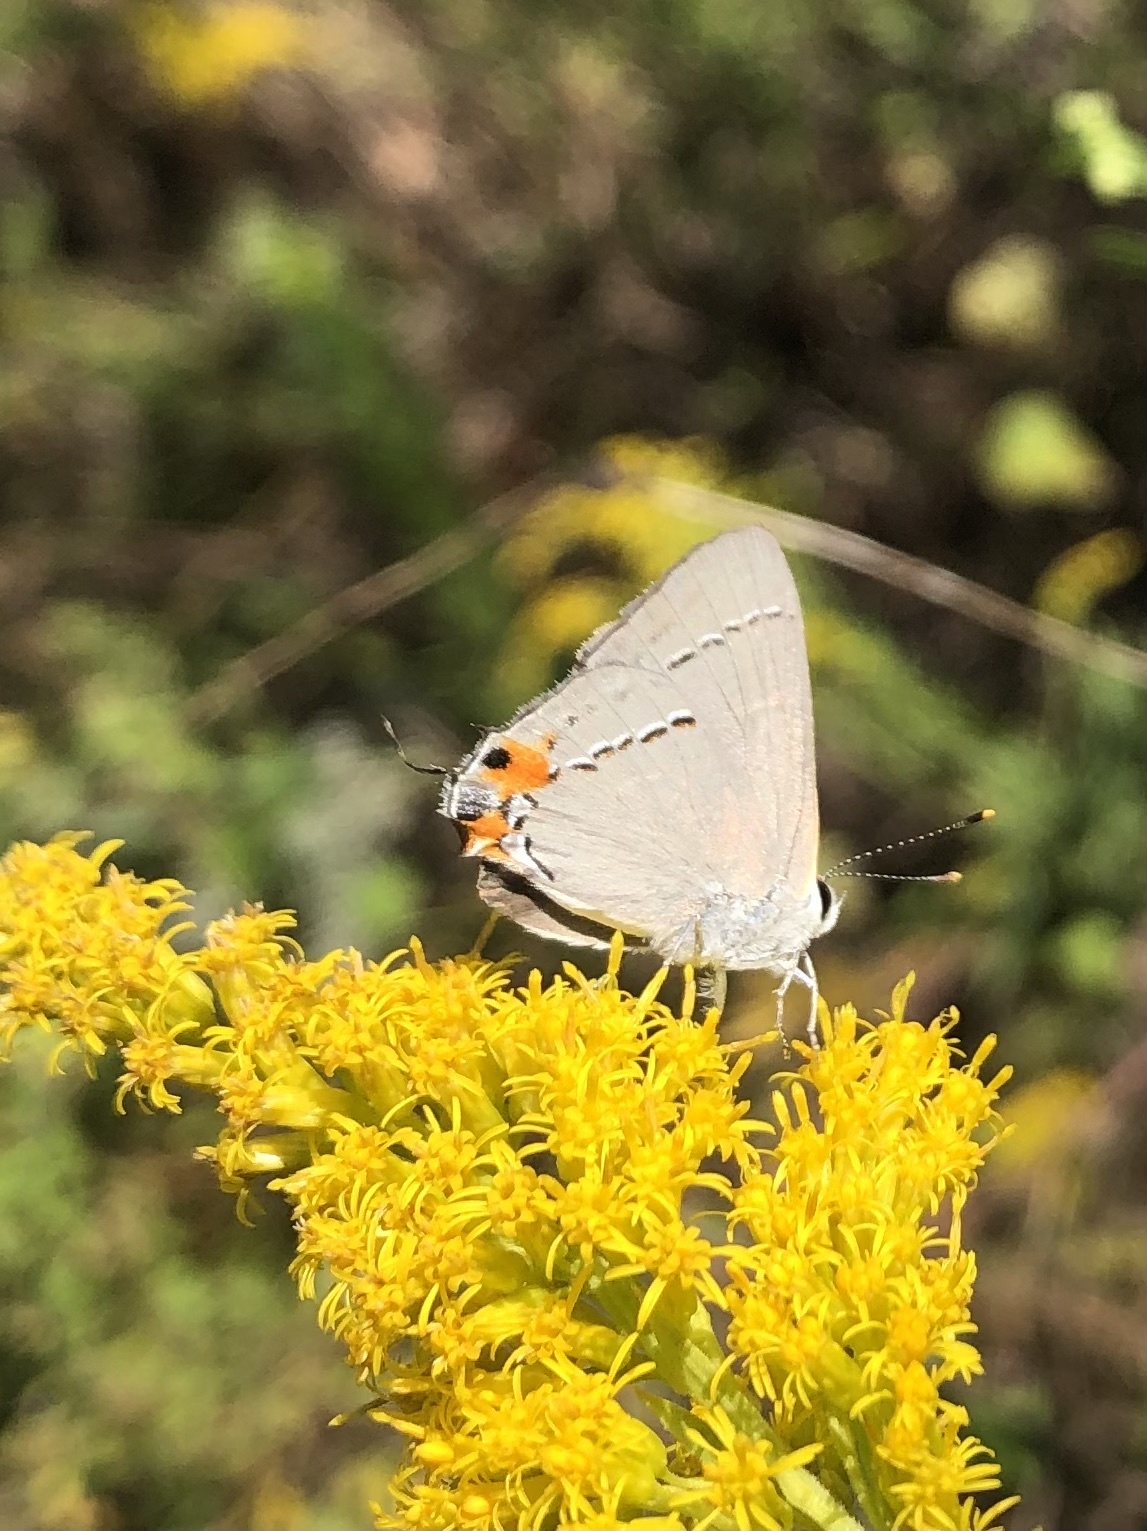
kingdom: Animalia
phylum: Arthropoda
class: Insecta
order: Lepidoptera
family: Lycaenidae
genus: Strymon
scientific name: Strymon melinus
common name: Gray hairstreak
